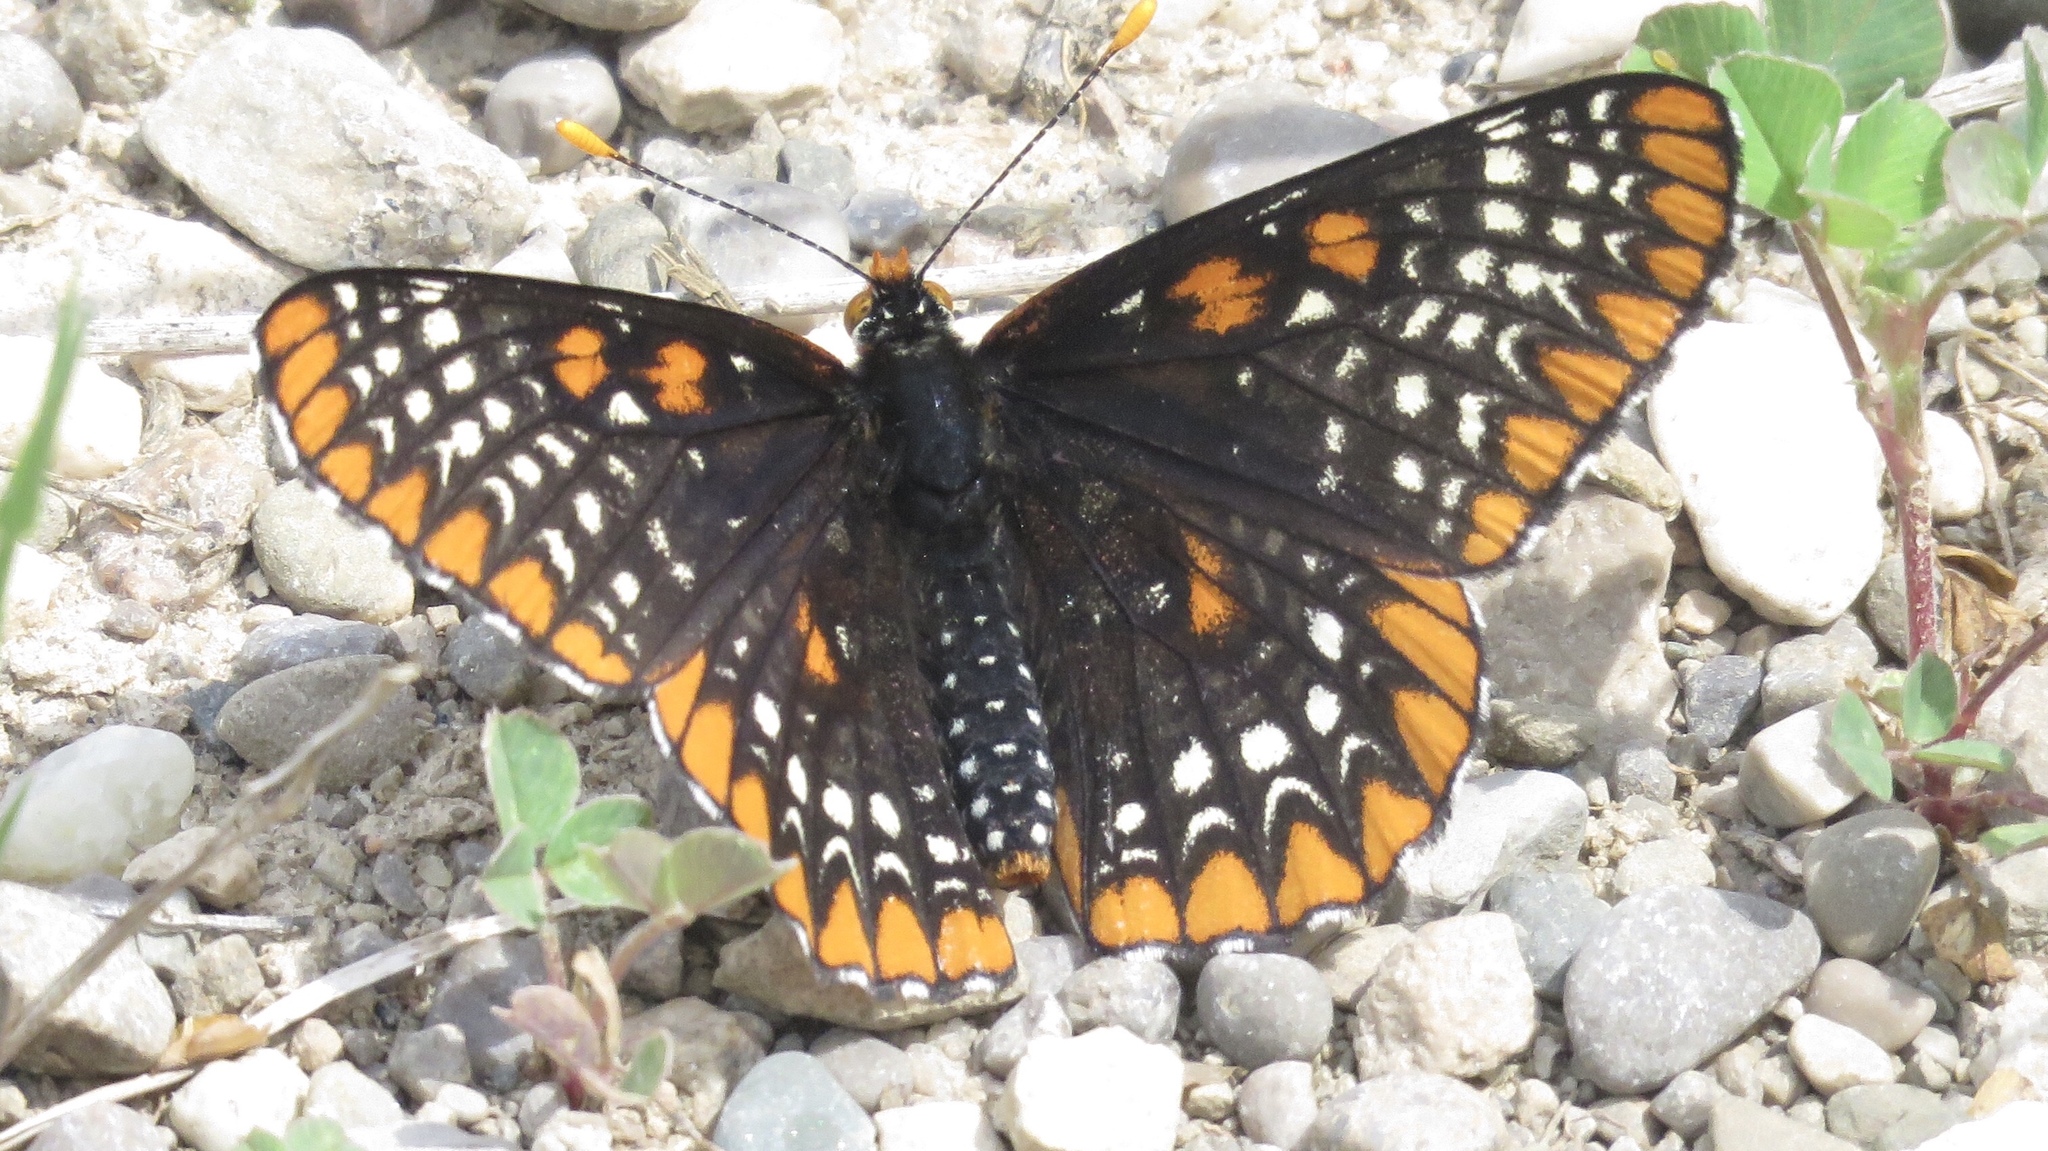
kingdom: Animalia
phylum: Arthropoda
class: Insecta
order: Lepidoptera
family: Nymphalidae
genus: Euphydryas
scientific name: Euphydryas phaeton
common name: Baltimore checkerspot
